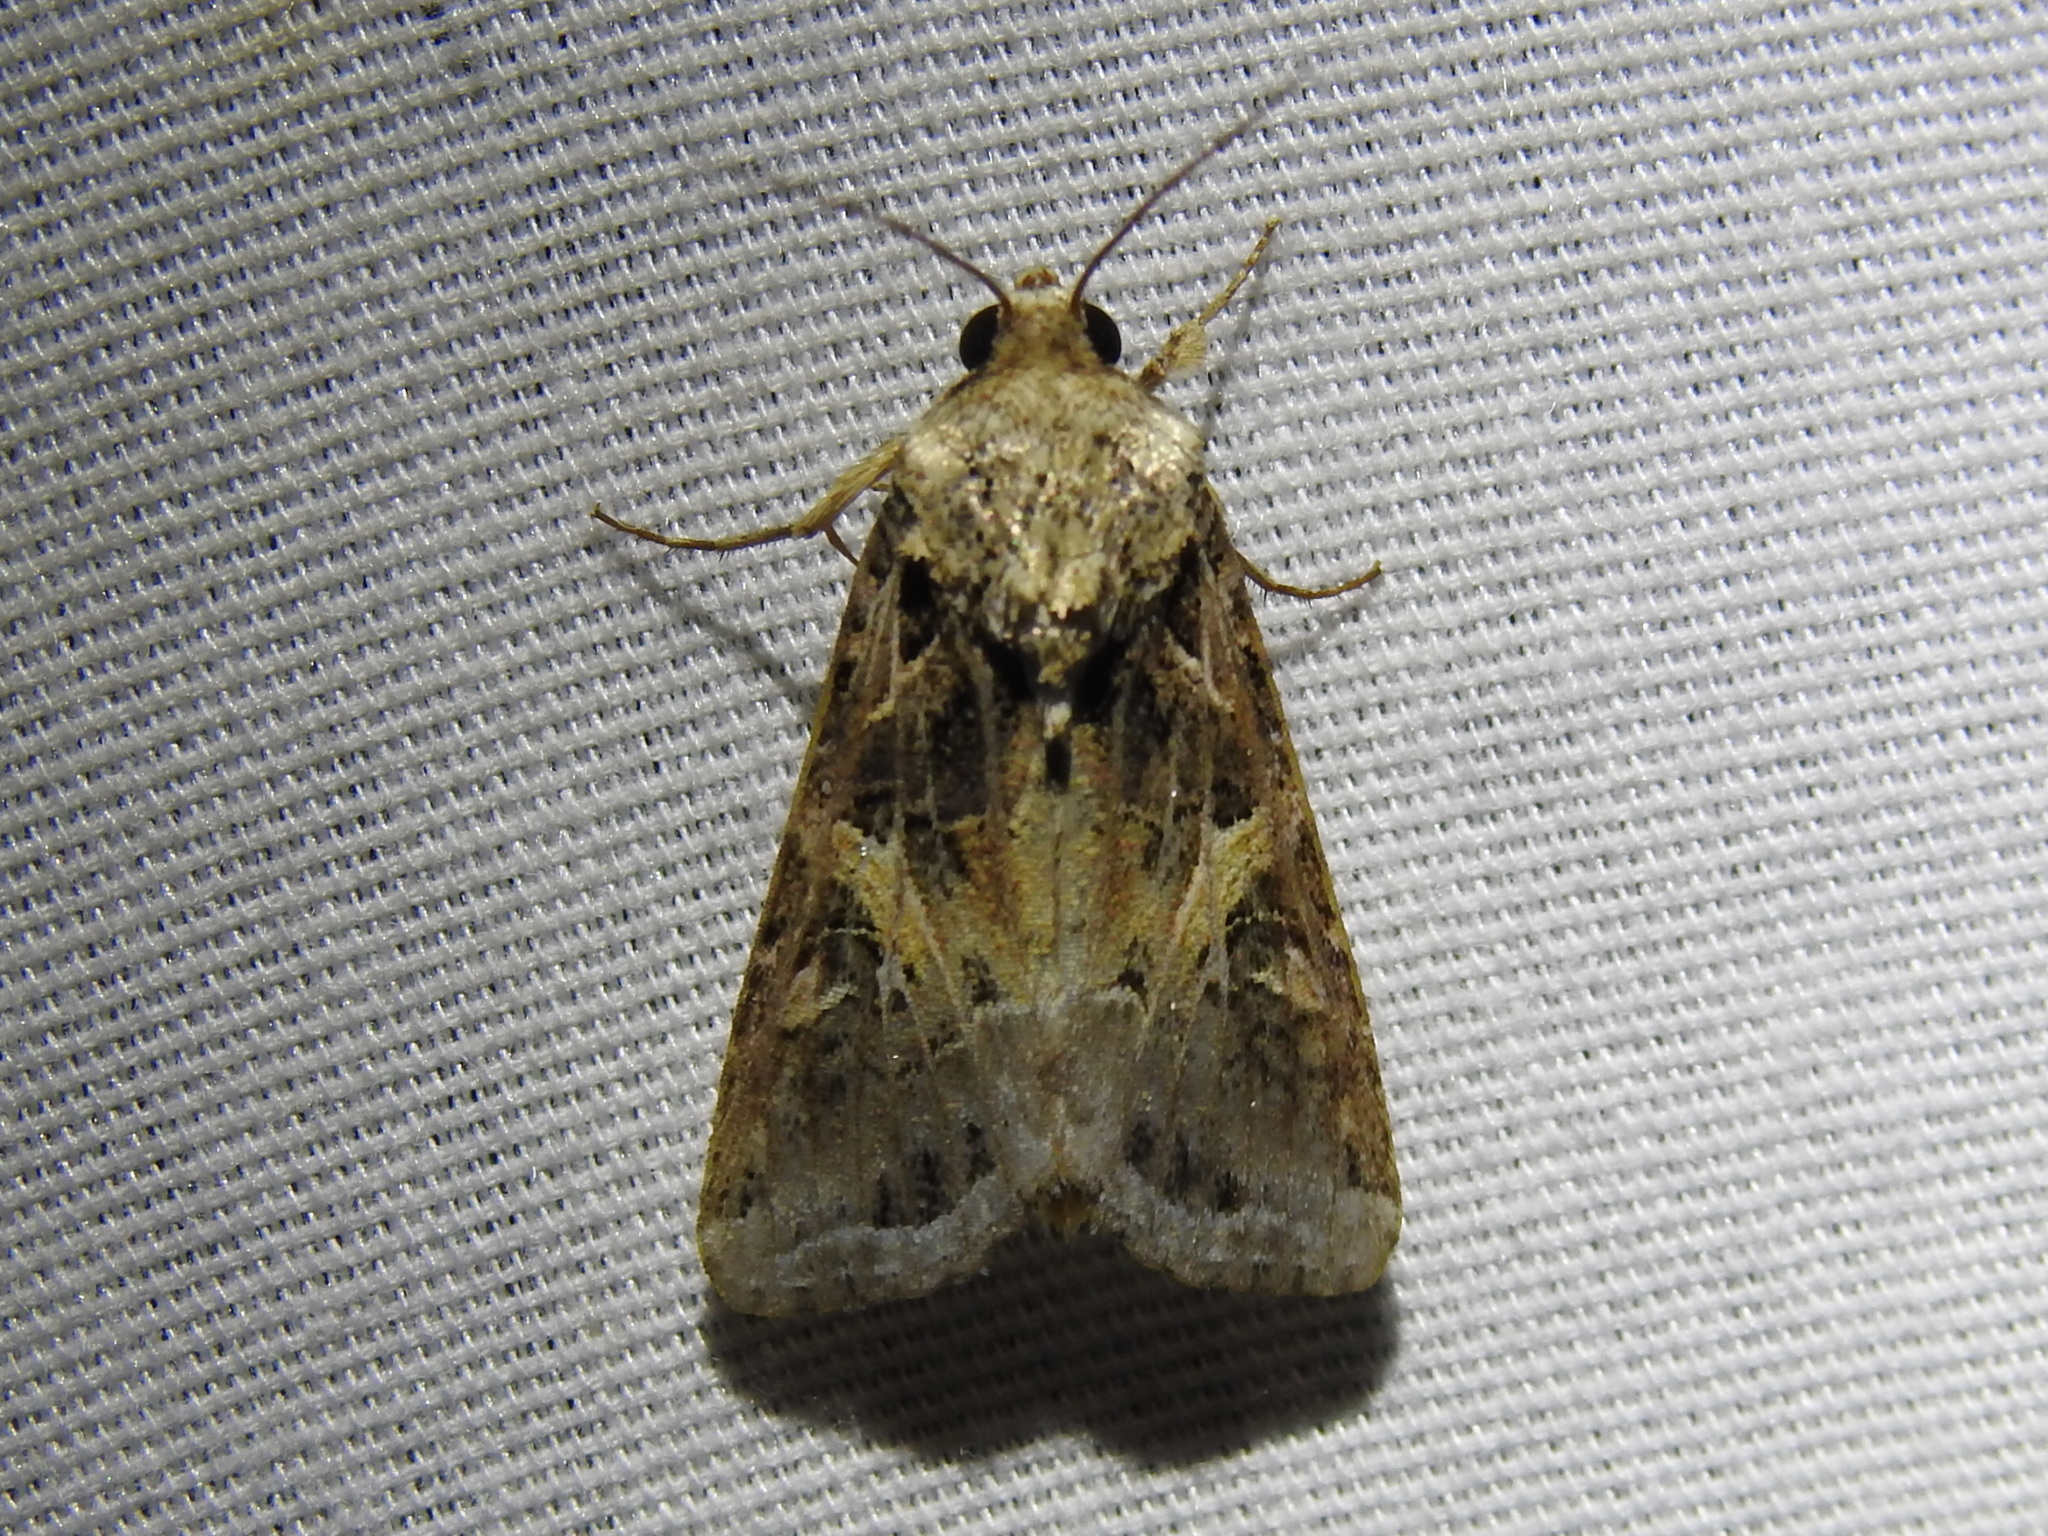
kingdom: Animalia
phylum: Arthropoda
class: Insecta
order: Lepidoptera
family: Noctuidae
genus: Spodoptera
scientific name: Spodoptera ornithogalli
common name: Yellow-striped armyworm
